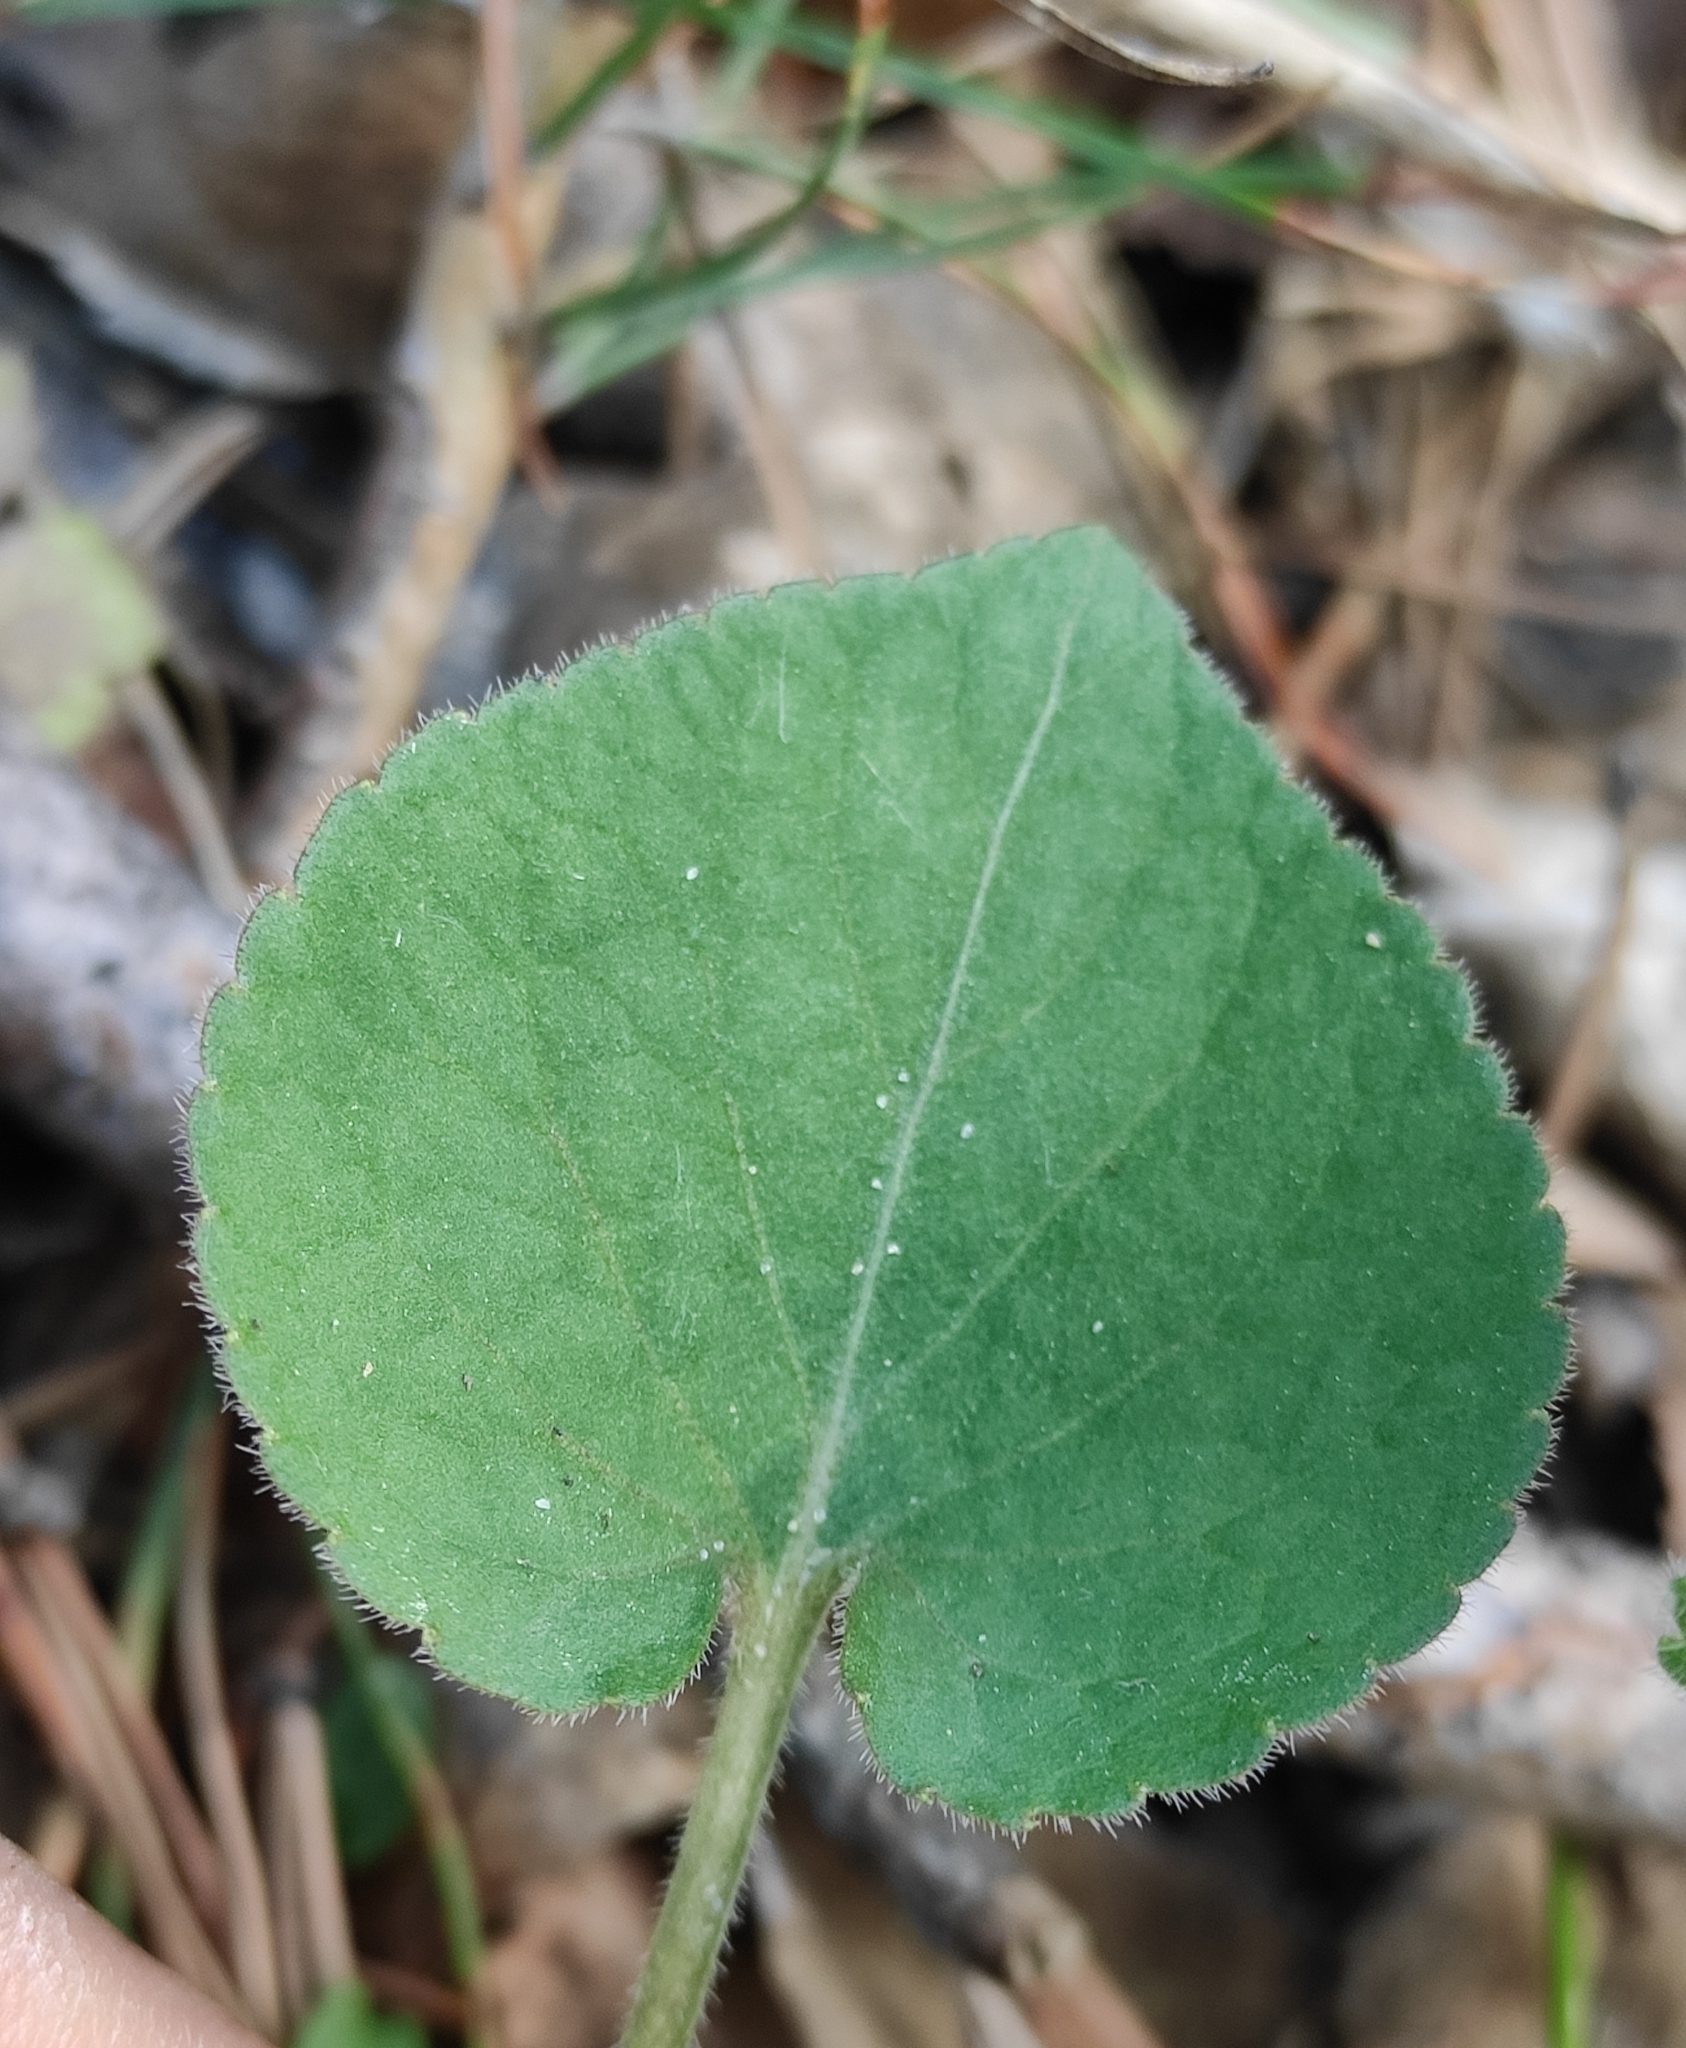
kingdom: Plantae
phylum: Tracheophyta
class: Magnoliopsida
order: Malpighiales
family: Violaceae
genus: Viola
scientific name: Viola collina
